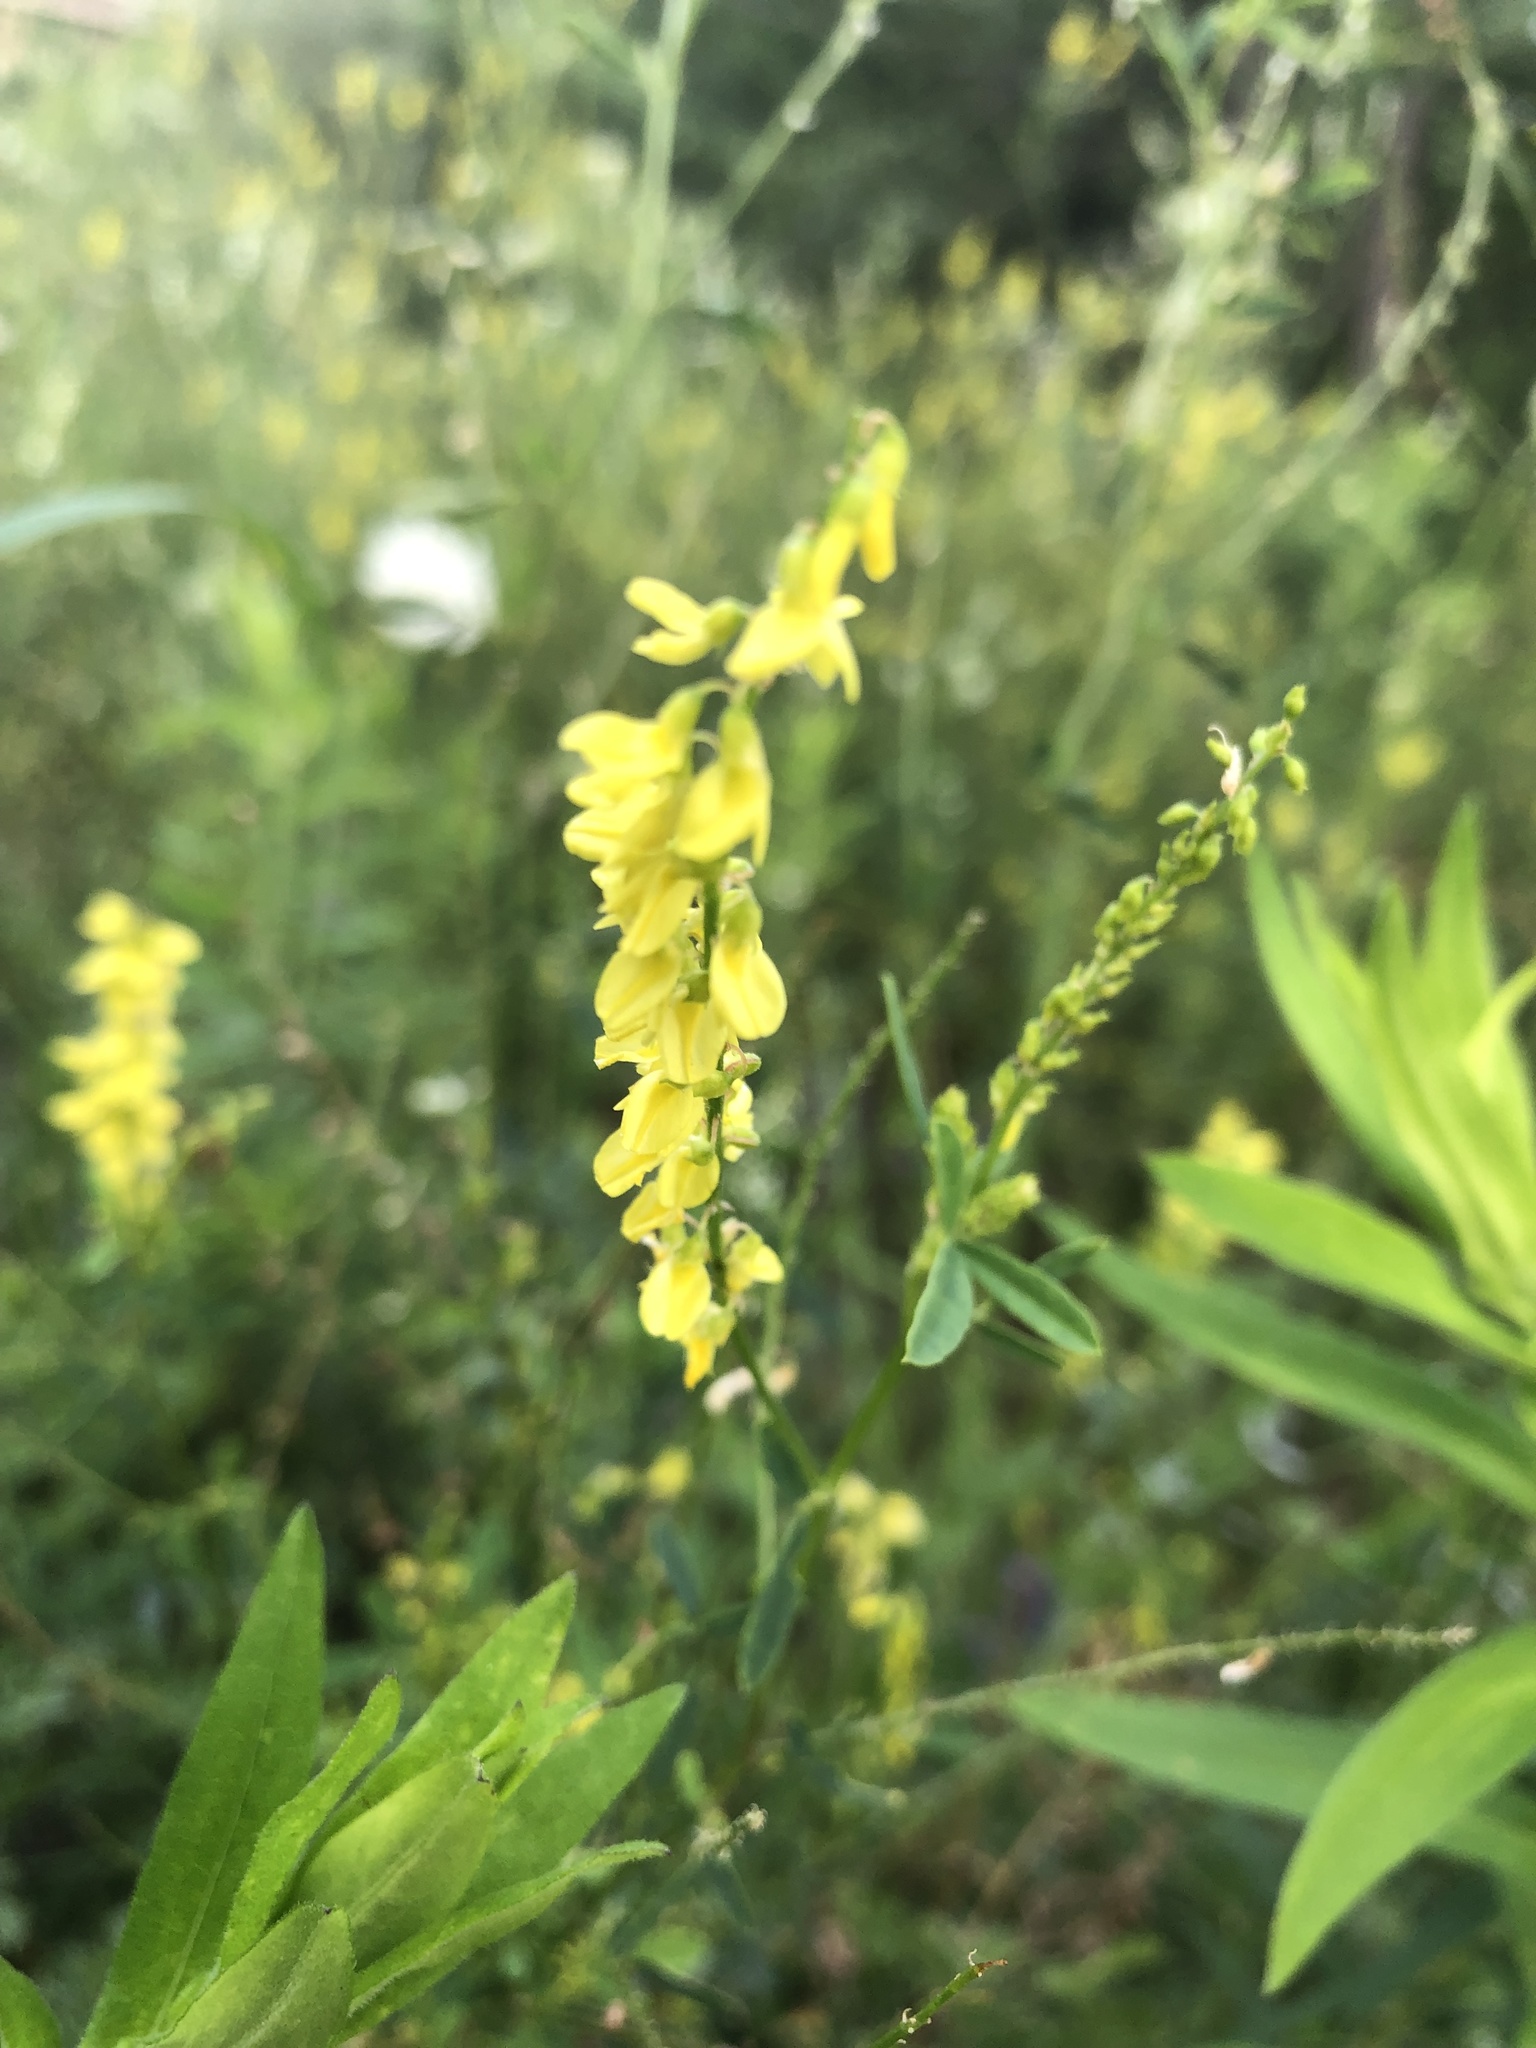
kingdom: Plantae
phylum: Tracheophyta
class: Magnoliopsida
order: Fabales
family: Fabaceae
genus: Melilotus
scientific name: Melilotus officinalis
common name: Sweetclover
